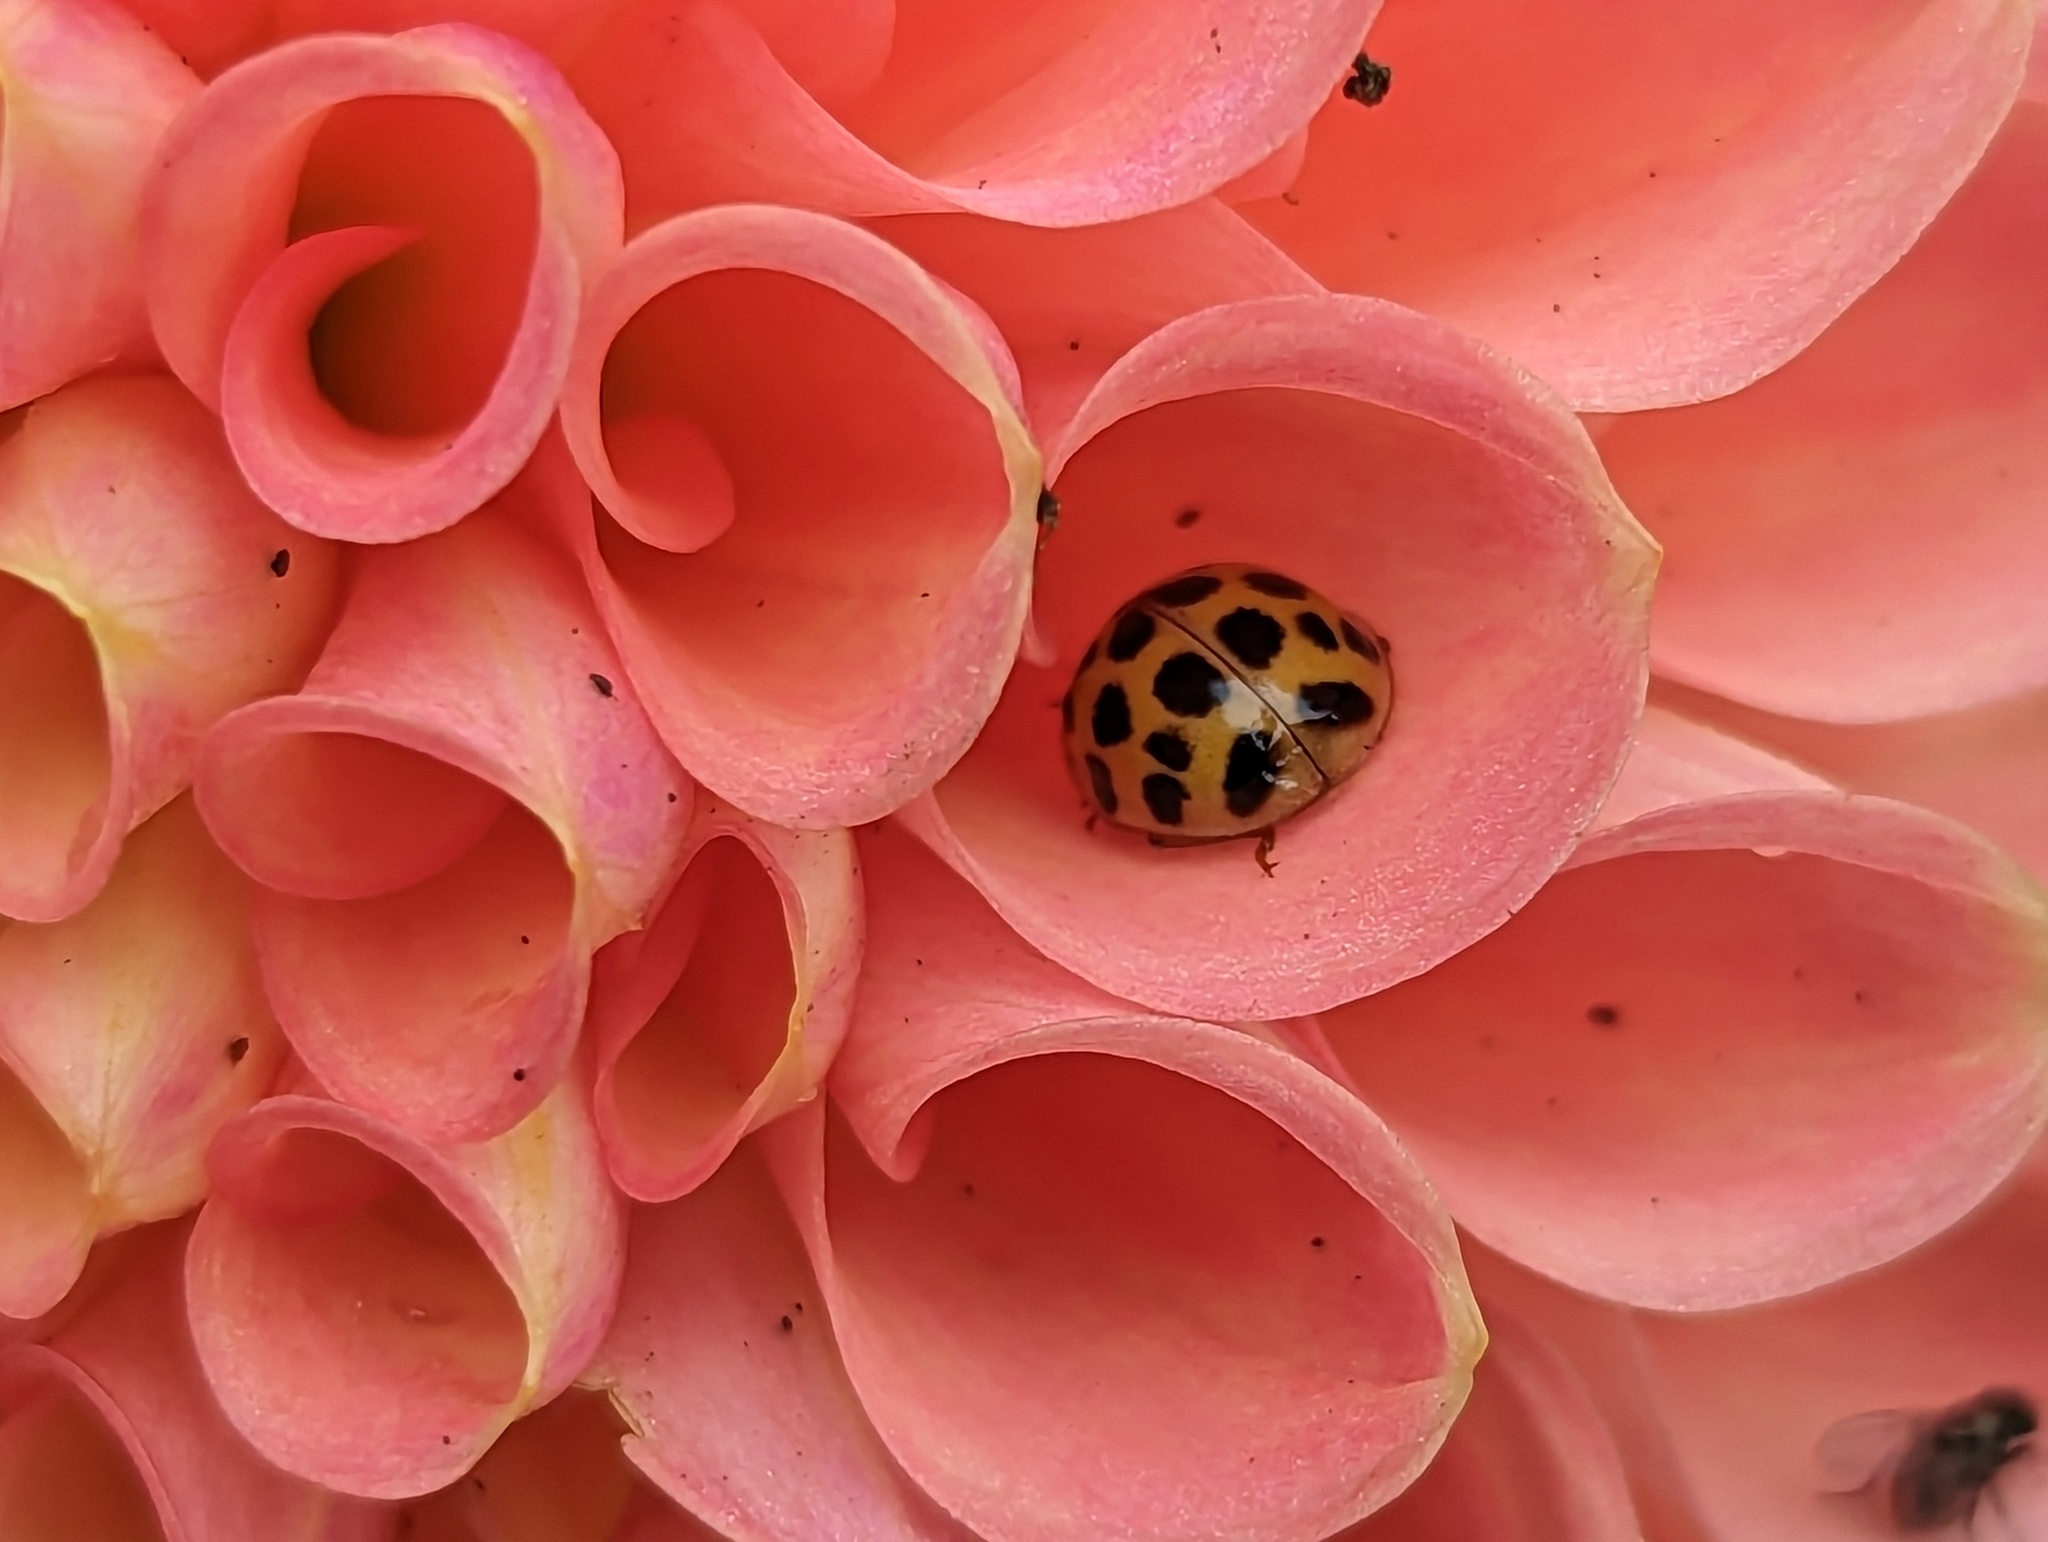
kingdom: Animalia
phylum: Arthropoda
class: Insecta
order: Coleoptera
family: Coccinellidae
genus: Harmonia
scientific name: Harmonia axyridis
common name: Harlequin ladybird
